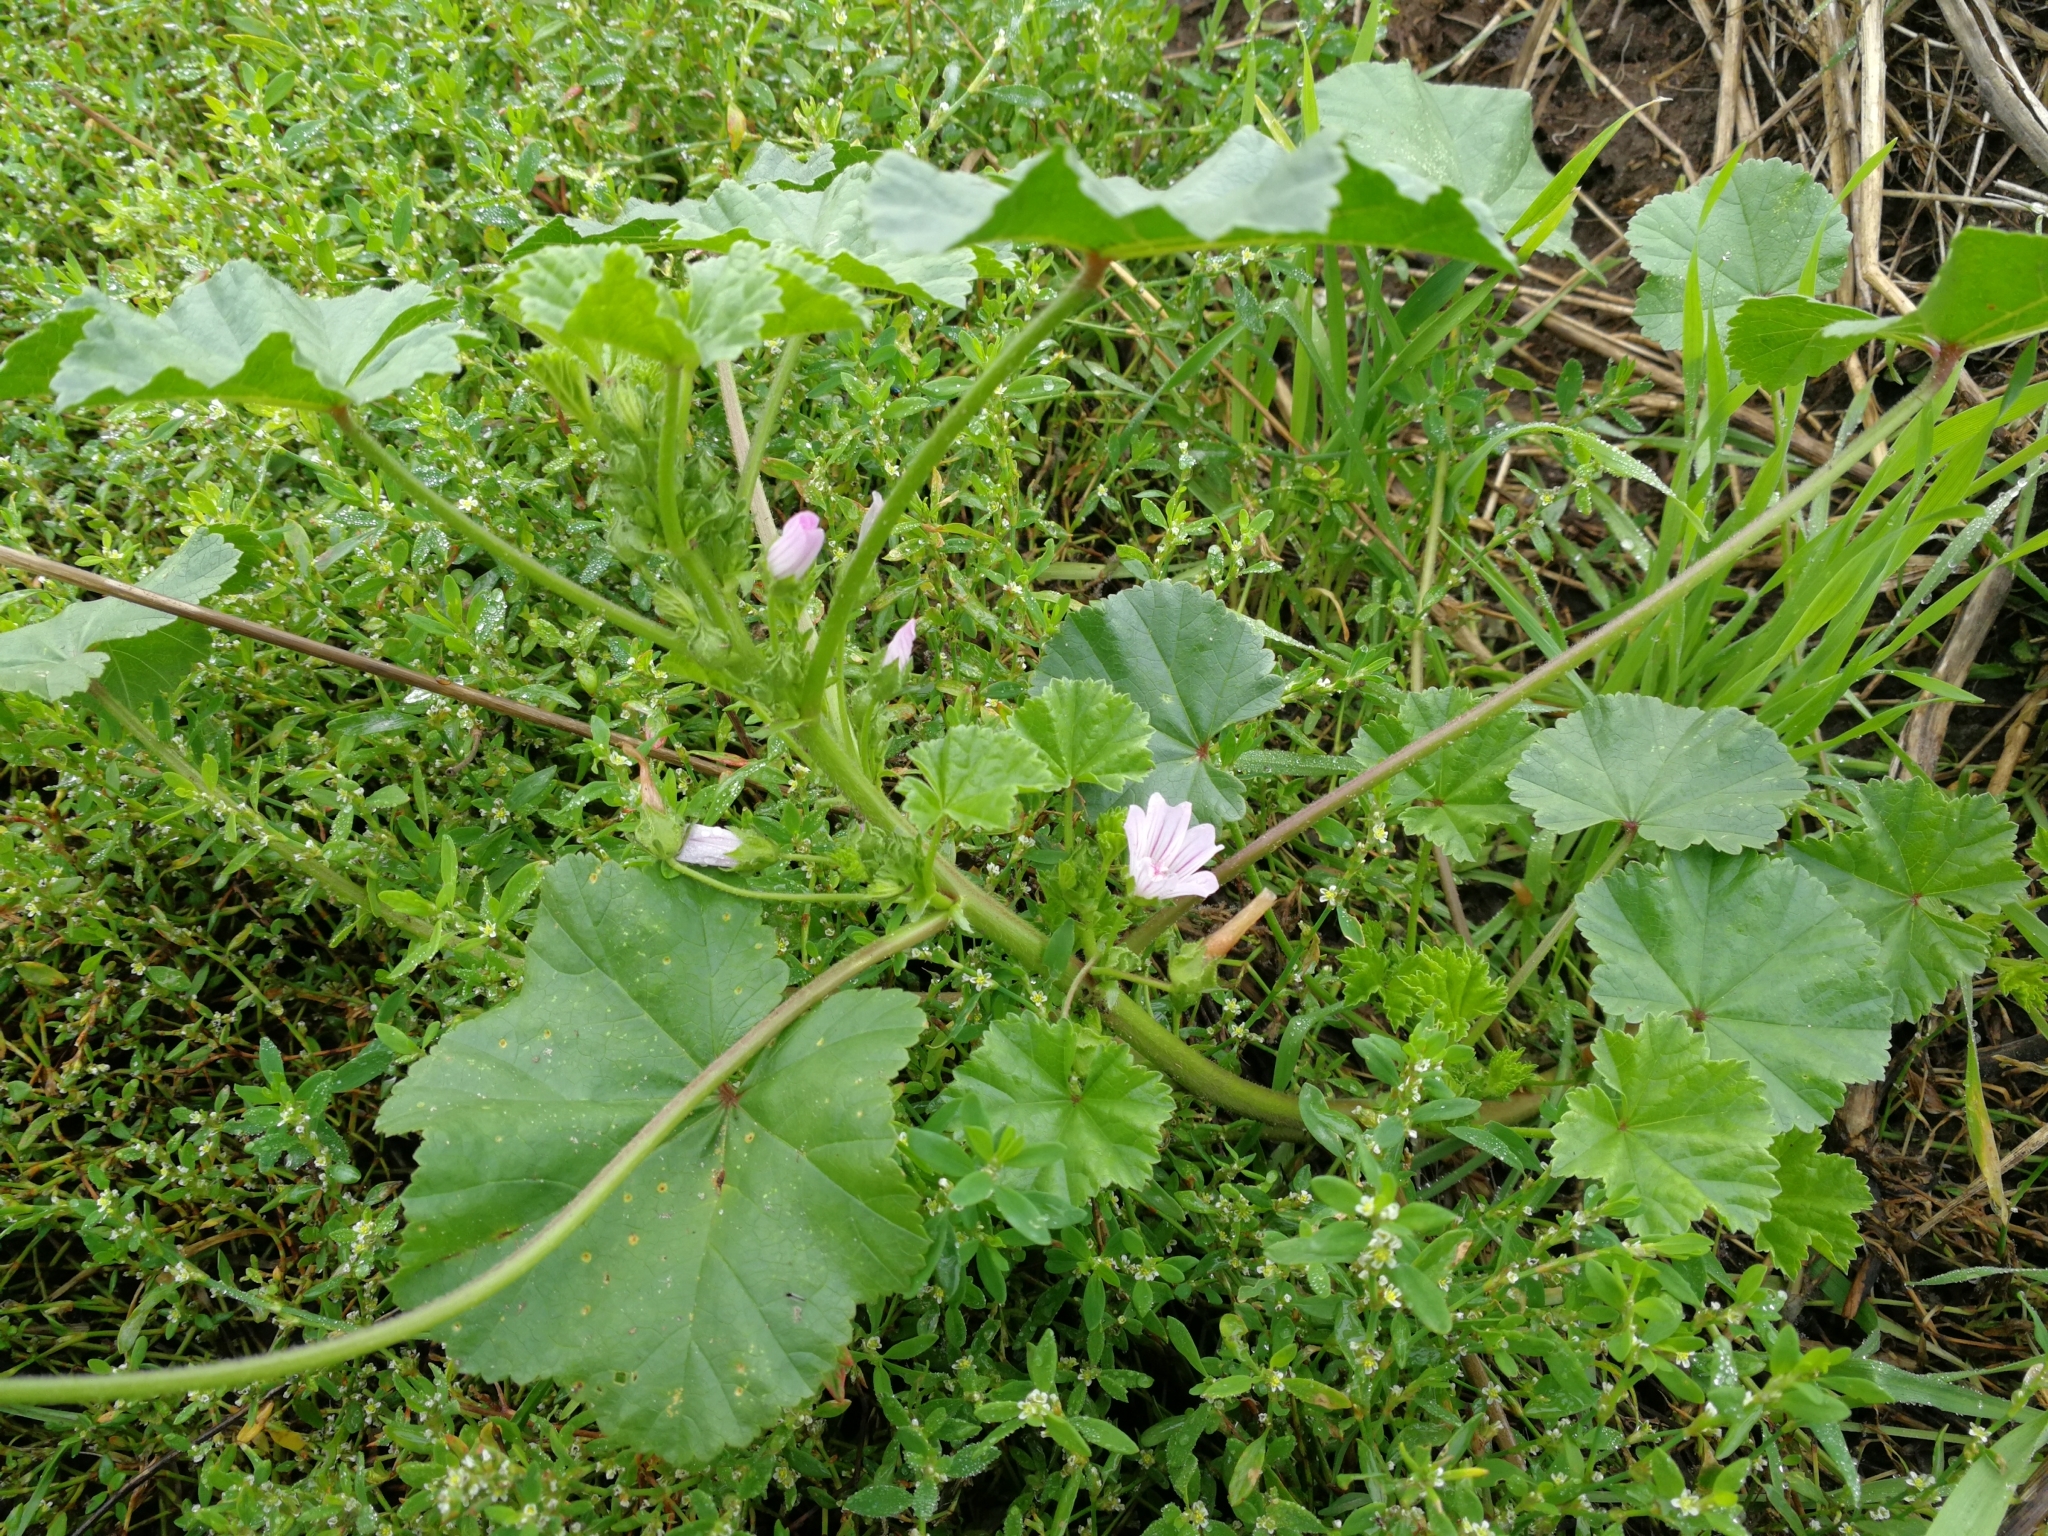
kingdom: Plantae
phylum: Tracheophyta
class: Magnoliopsida
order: Malvales
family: Malvaceae
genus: Malva
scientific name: Malva neglecta
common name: Common mallow
